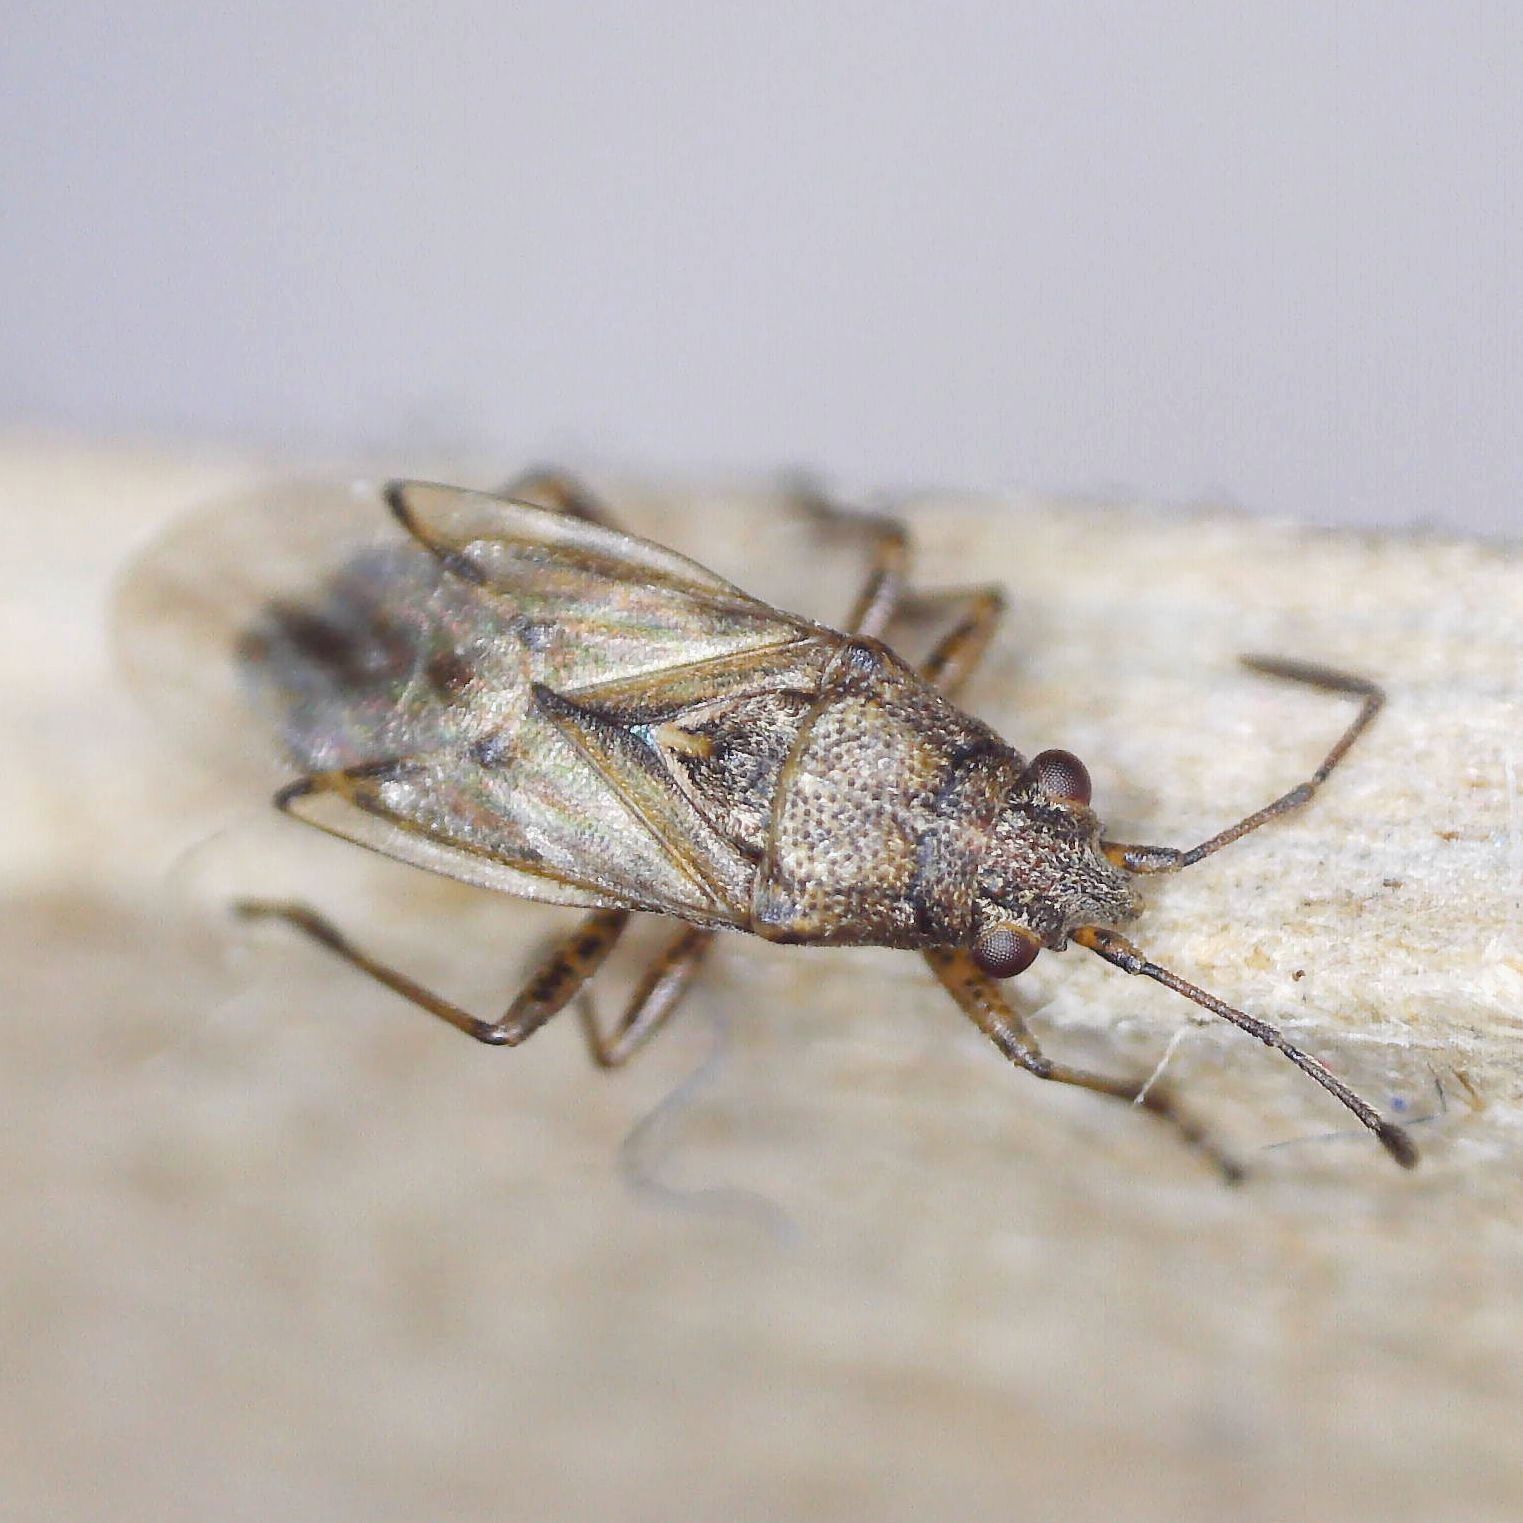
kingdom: Animalia
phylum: Arthropoda
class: Insecta
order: Hemiptera
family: Lygaeidae
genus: Nysius
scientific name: Nysius senecionis
